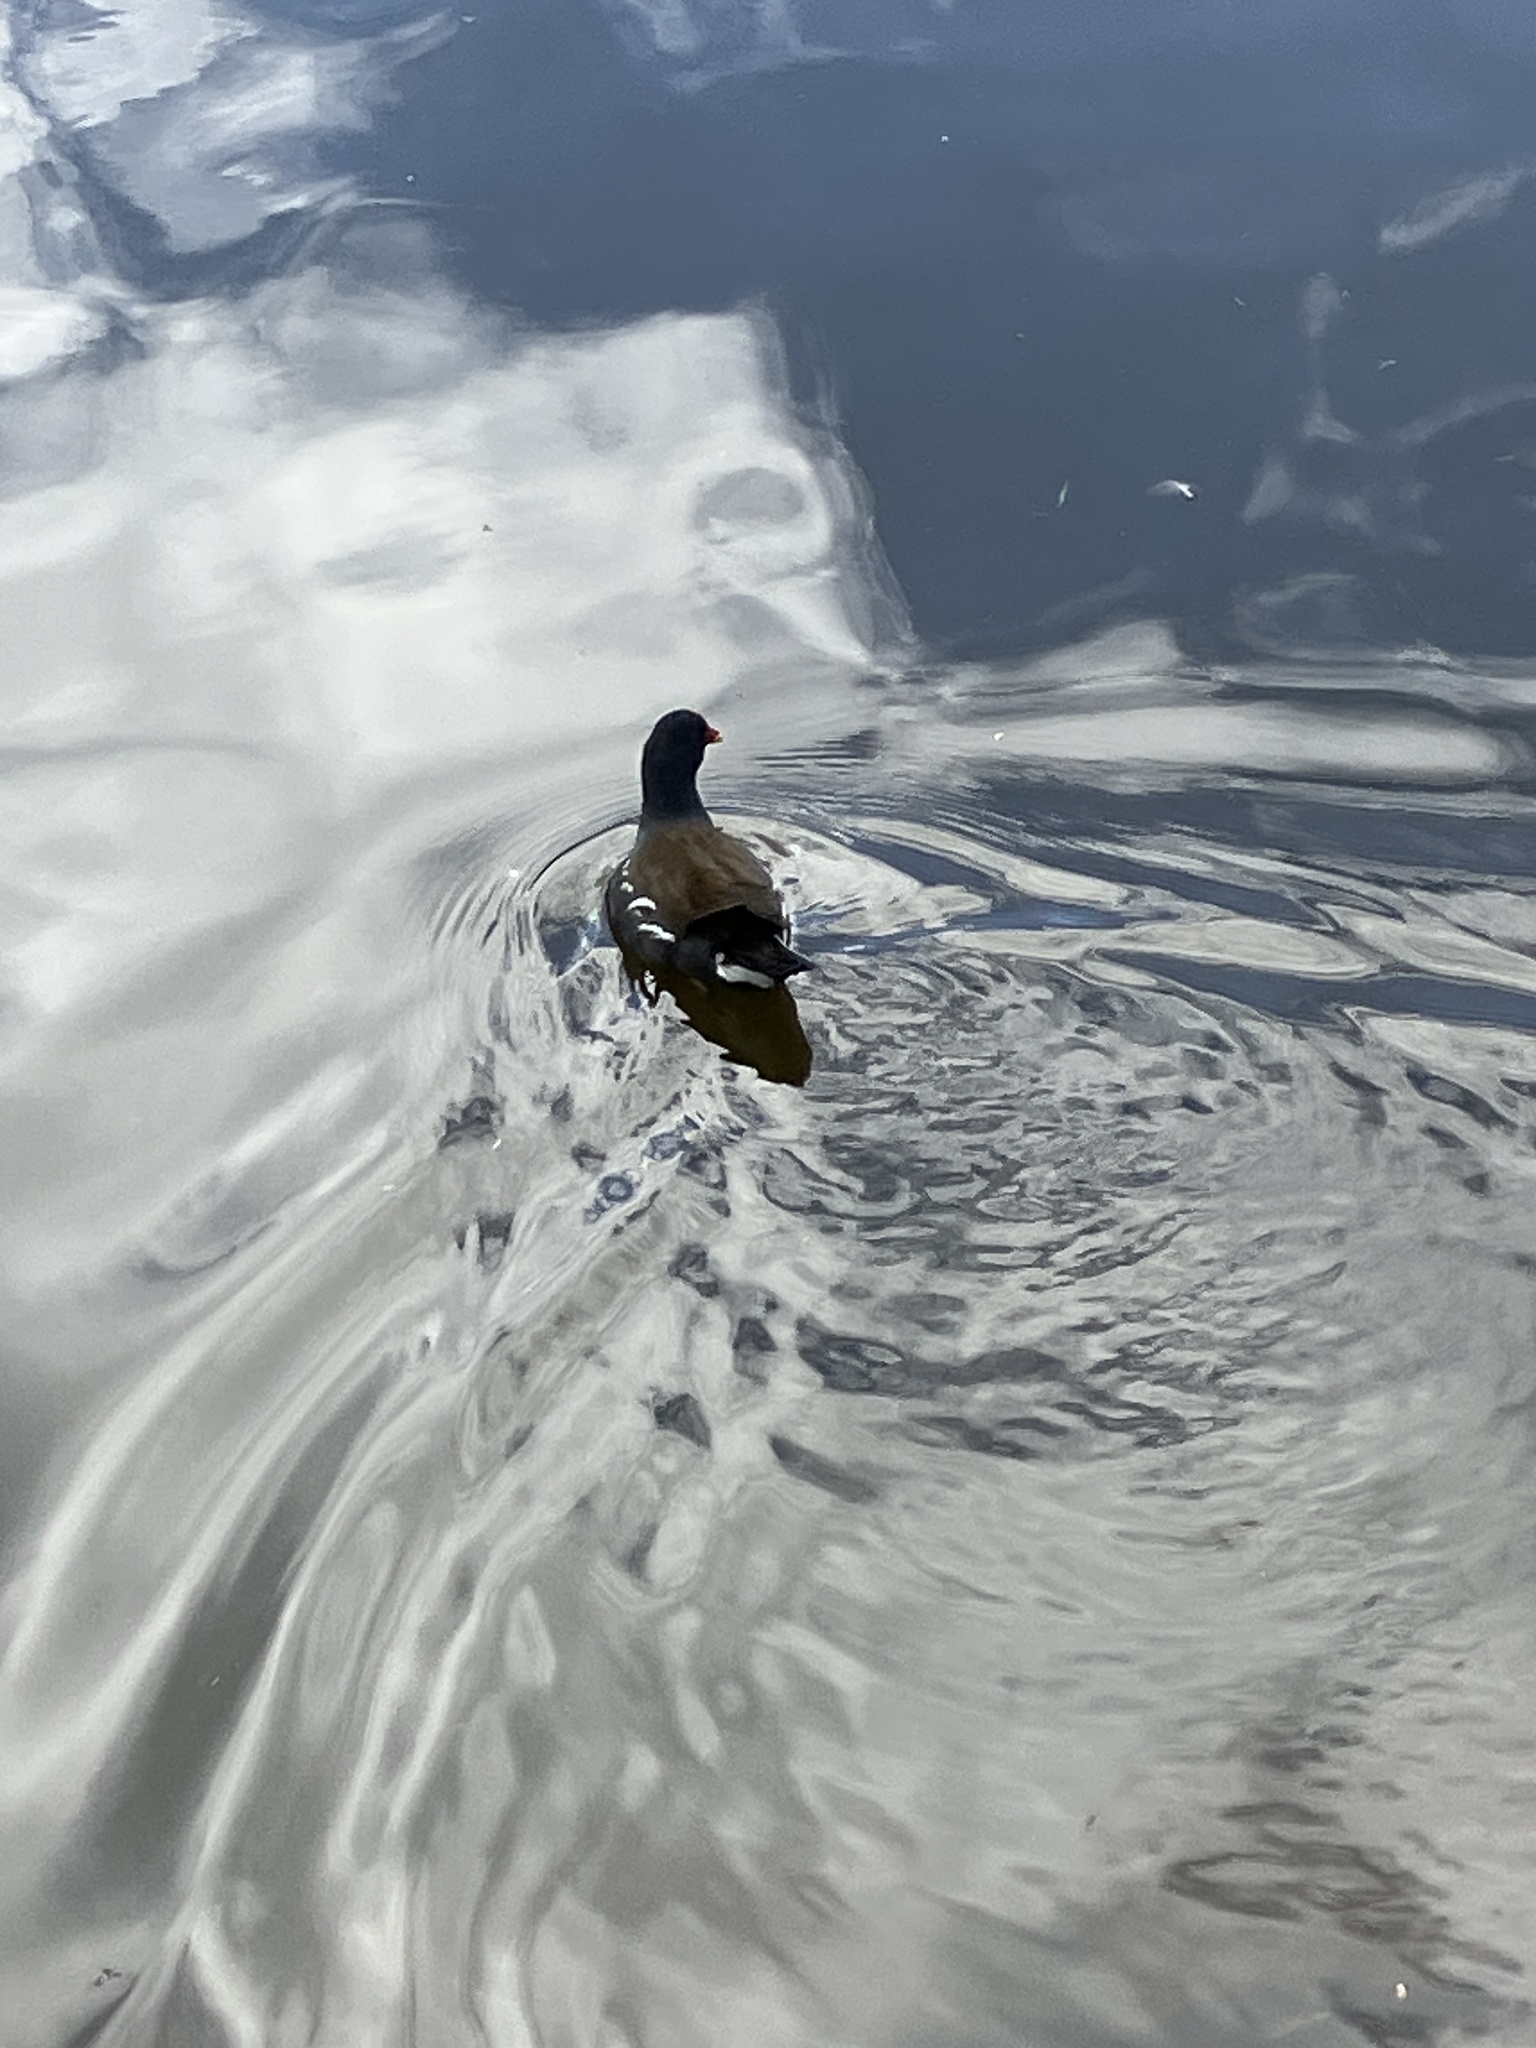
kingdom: Animalia
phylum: Chordata
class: Aves
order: Gruiformes
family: Rallidae
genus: Gallinula
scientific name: Gallinula chloropus
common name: Common moorhen
